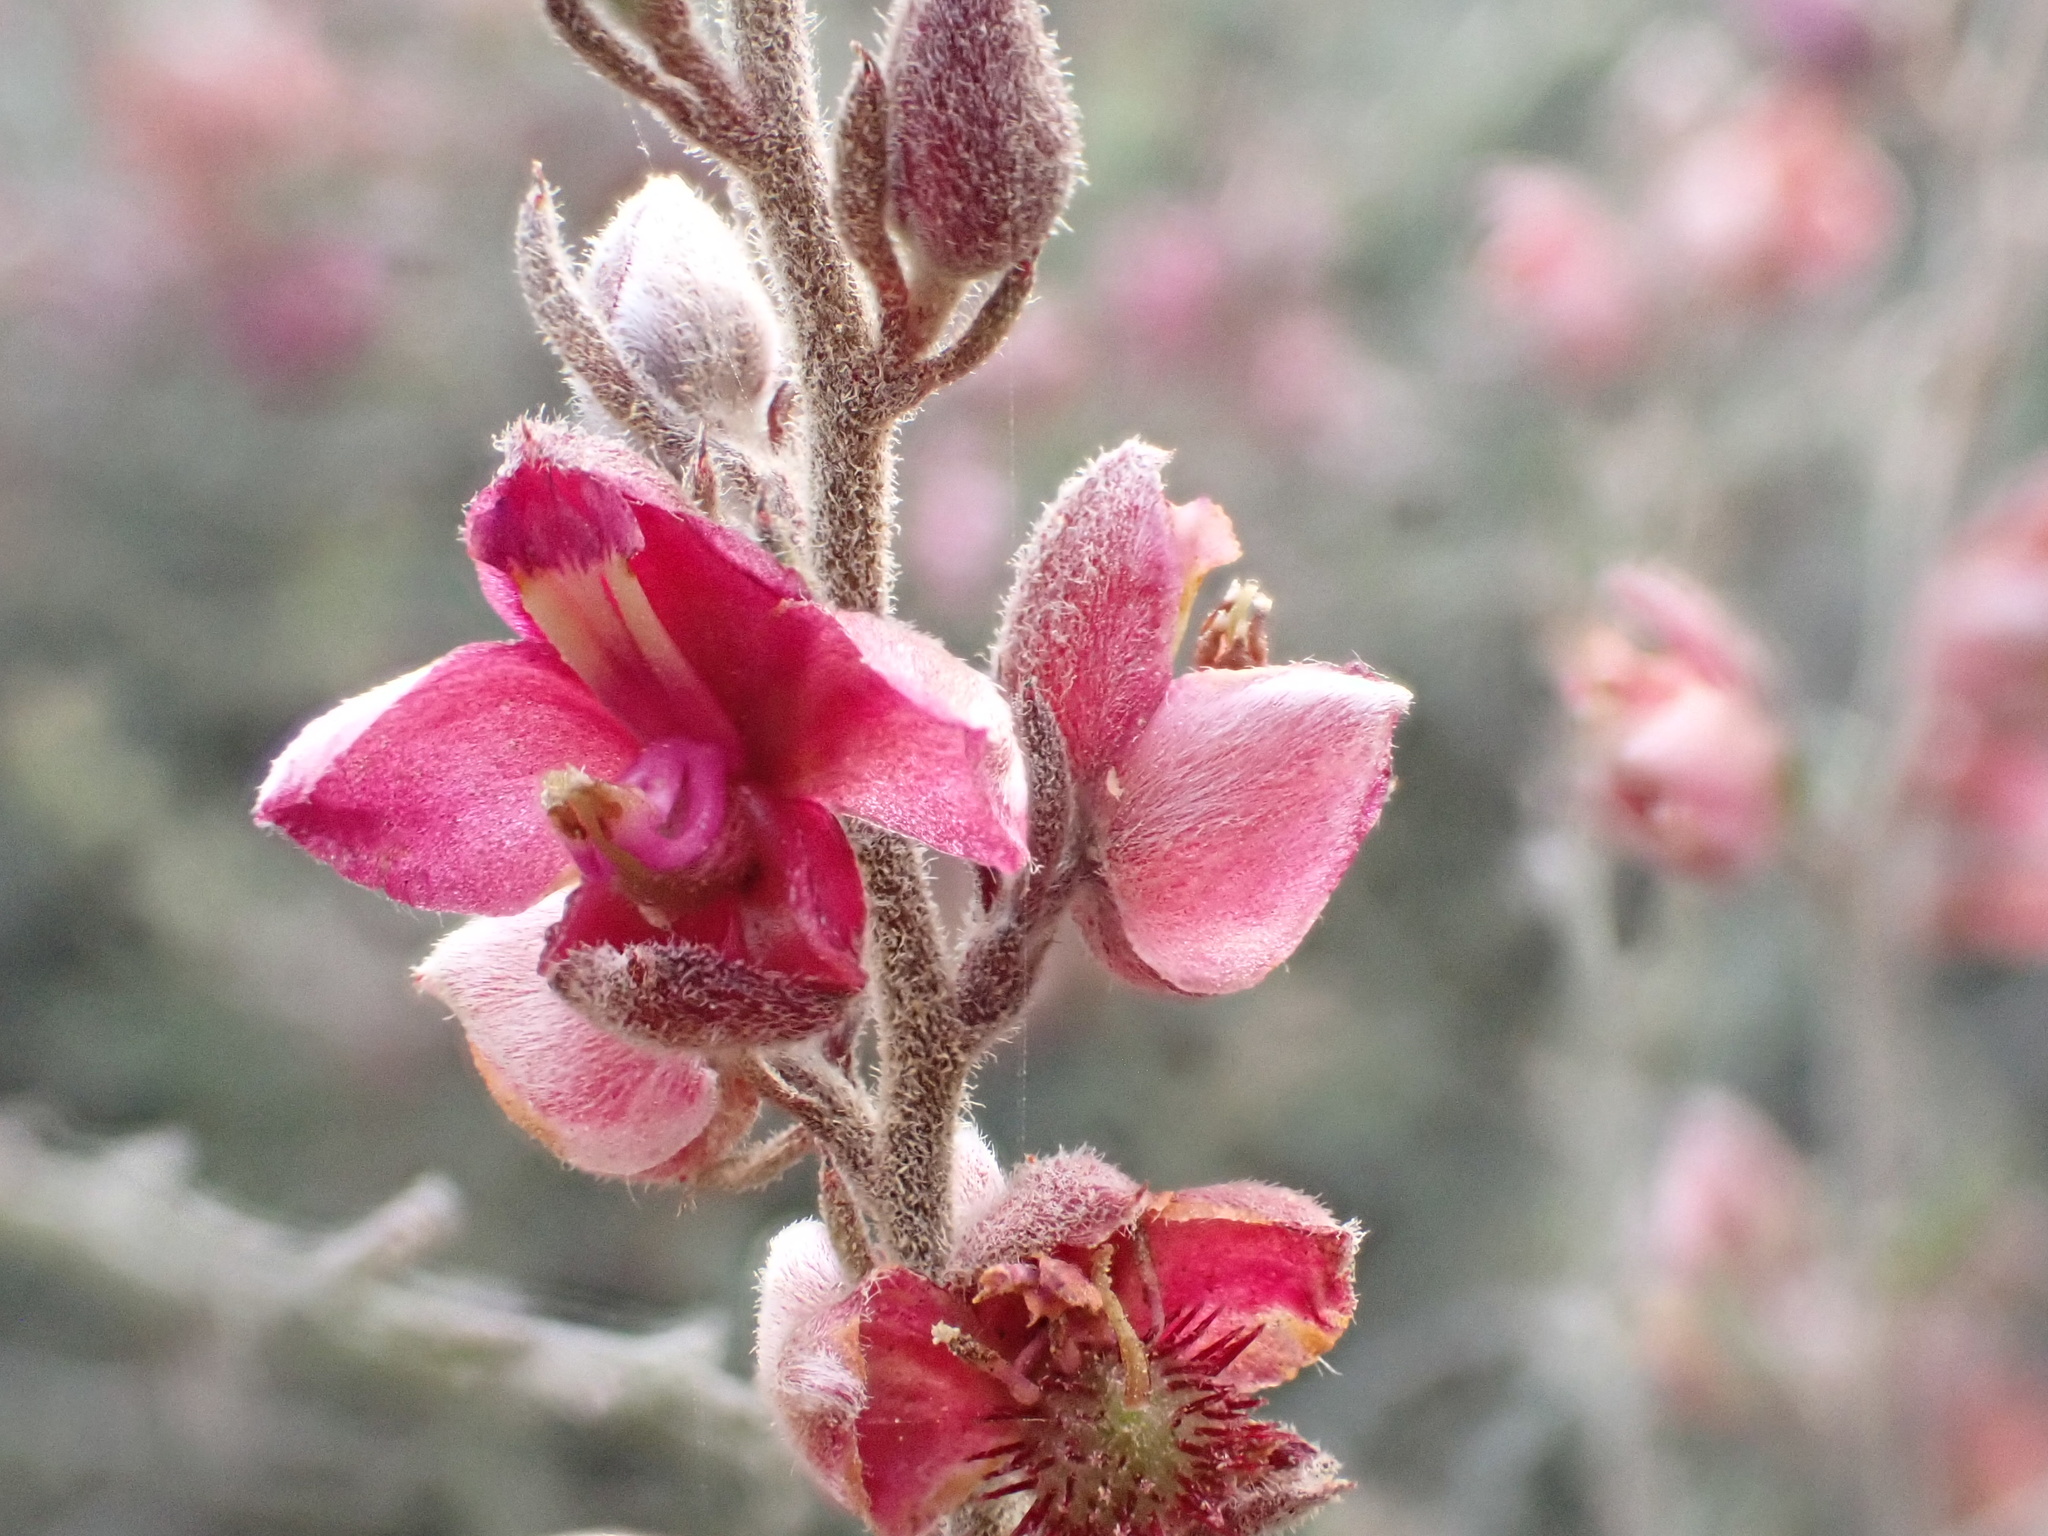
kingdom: Plantae
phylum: Tracheophyta
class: Magnoliopsida
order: Zygophyllales
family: Krameriaceae
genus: Krameria
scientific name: Krameria ixine
